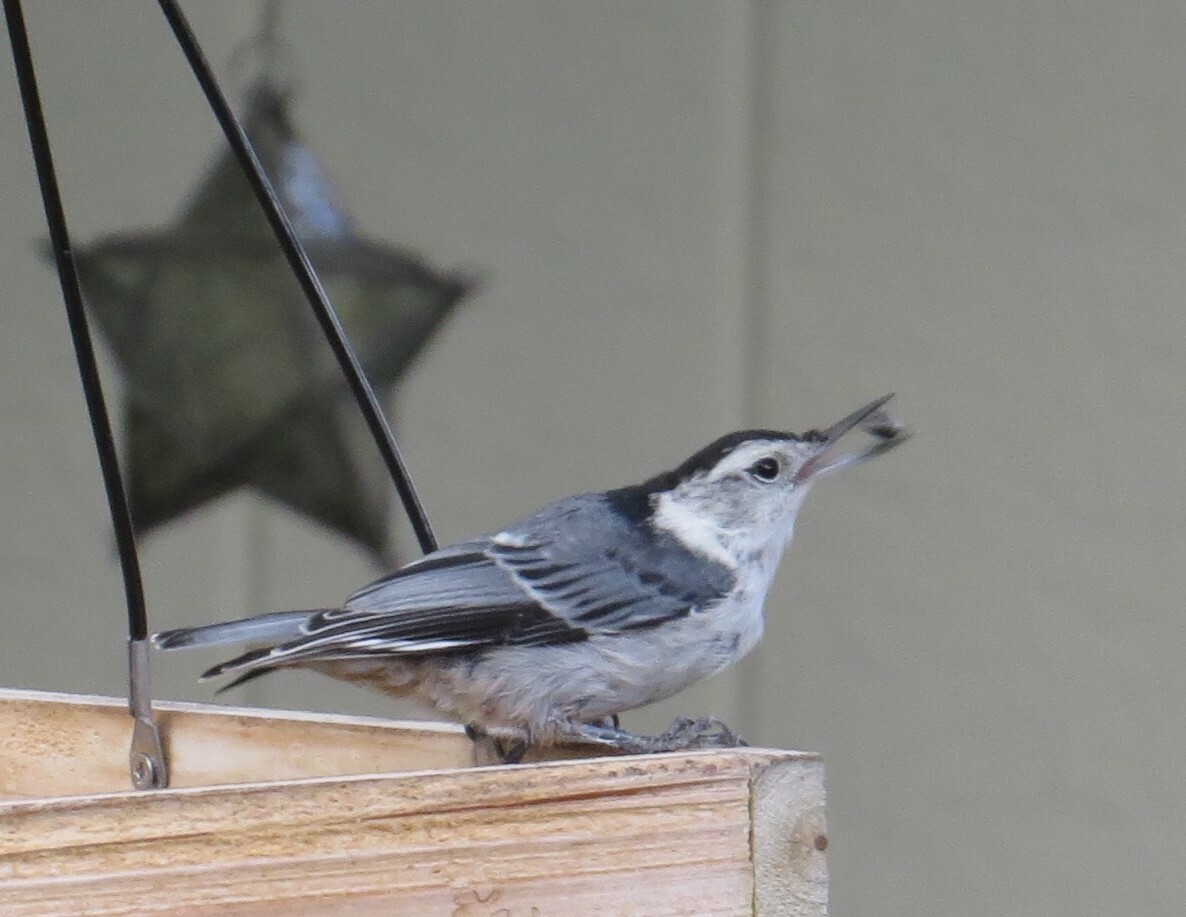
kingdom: Animalia
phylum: Chordata
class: Aves
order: Passeriformes
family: Sittidae
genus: Sitta
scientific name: Sitta carolinensis
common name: White-breasted nuthatch
